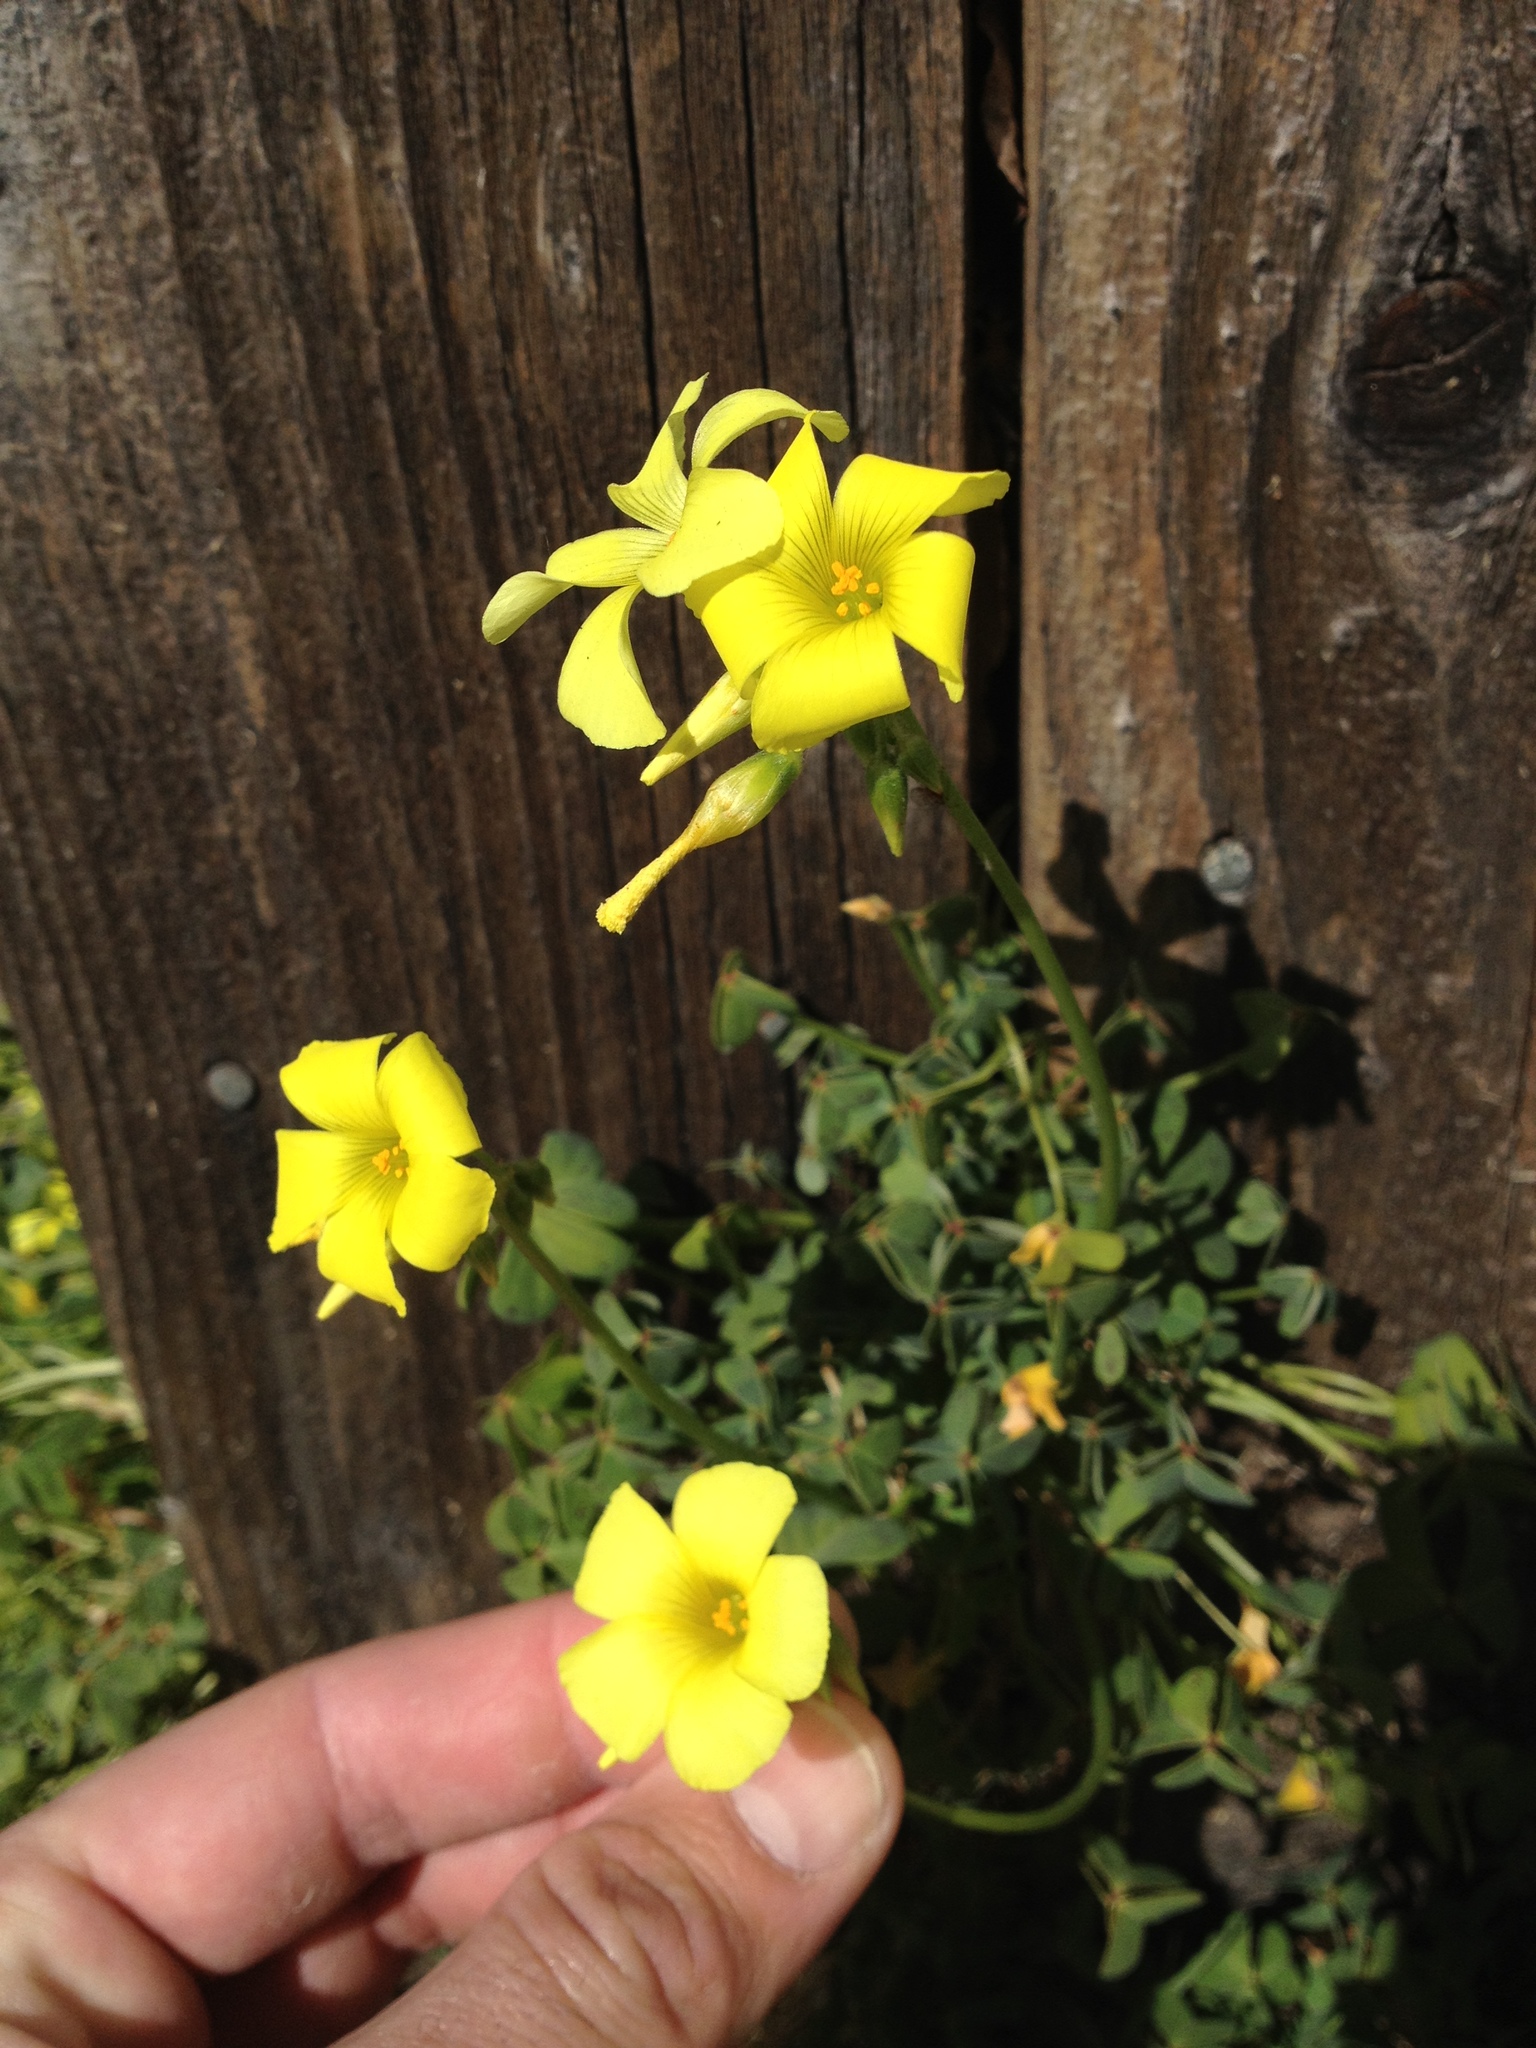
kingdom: Plantae
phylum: Tracheophyta
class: Magnoliopsida
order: Oxalidales
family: Oxalidaceae
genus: Oxalis
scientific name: Oxalis pes-caprae
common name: Bermuda-buttercup
